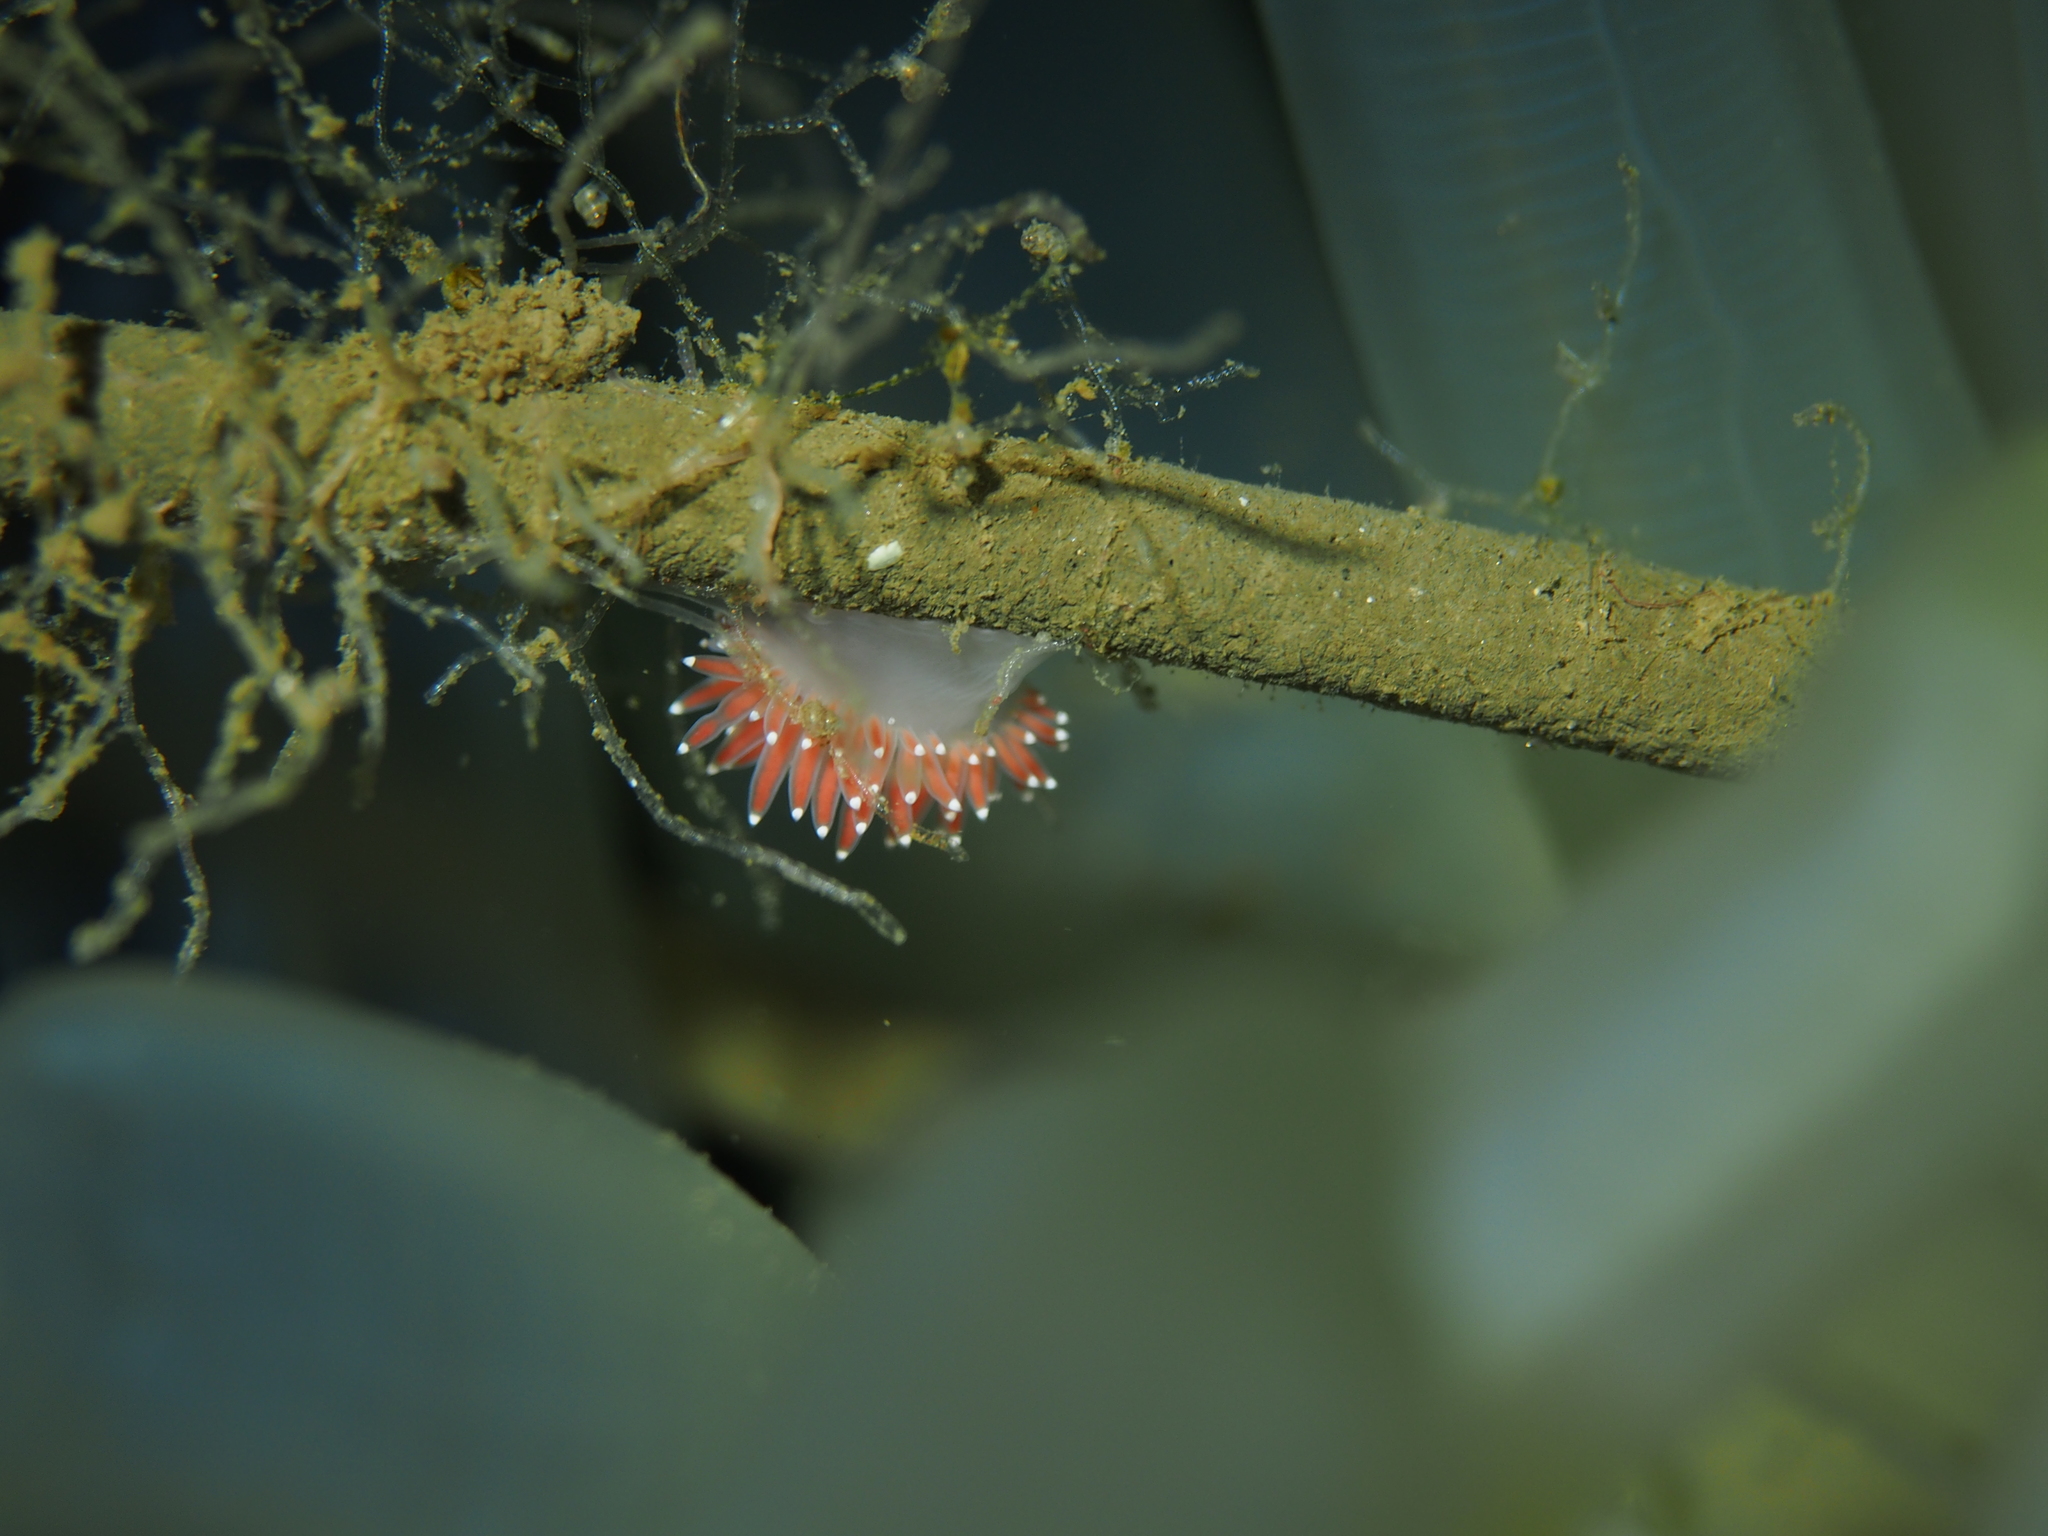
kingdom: Animalia
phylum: Mollusca
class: Gastropoda
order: Nudibranchia
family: Coryphellidae
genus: Coryphella
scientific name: Coryphella verrucosa
